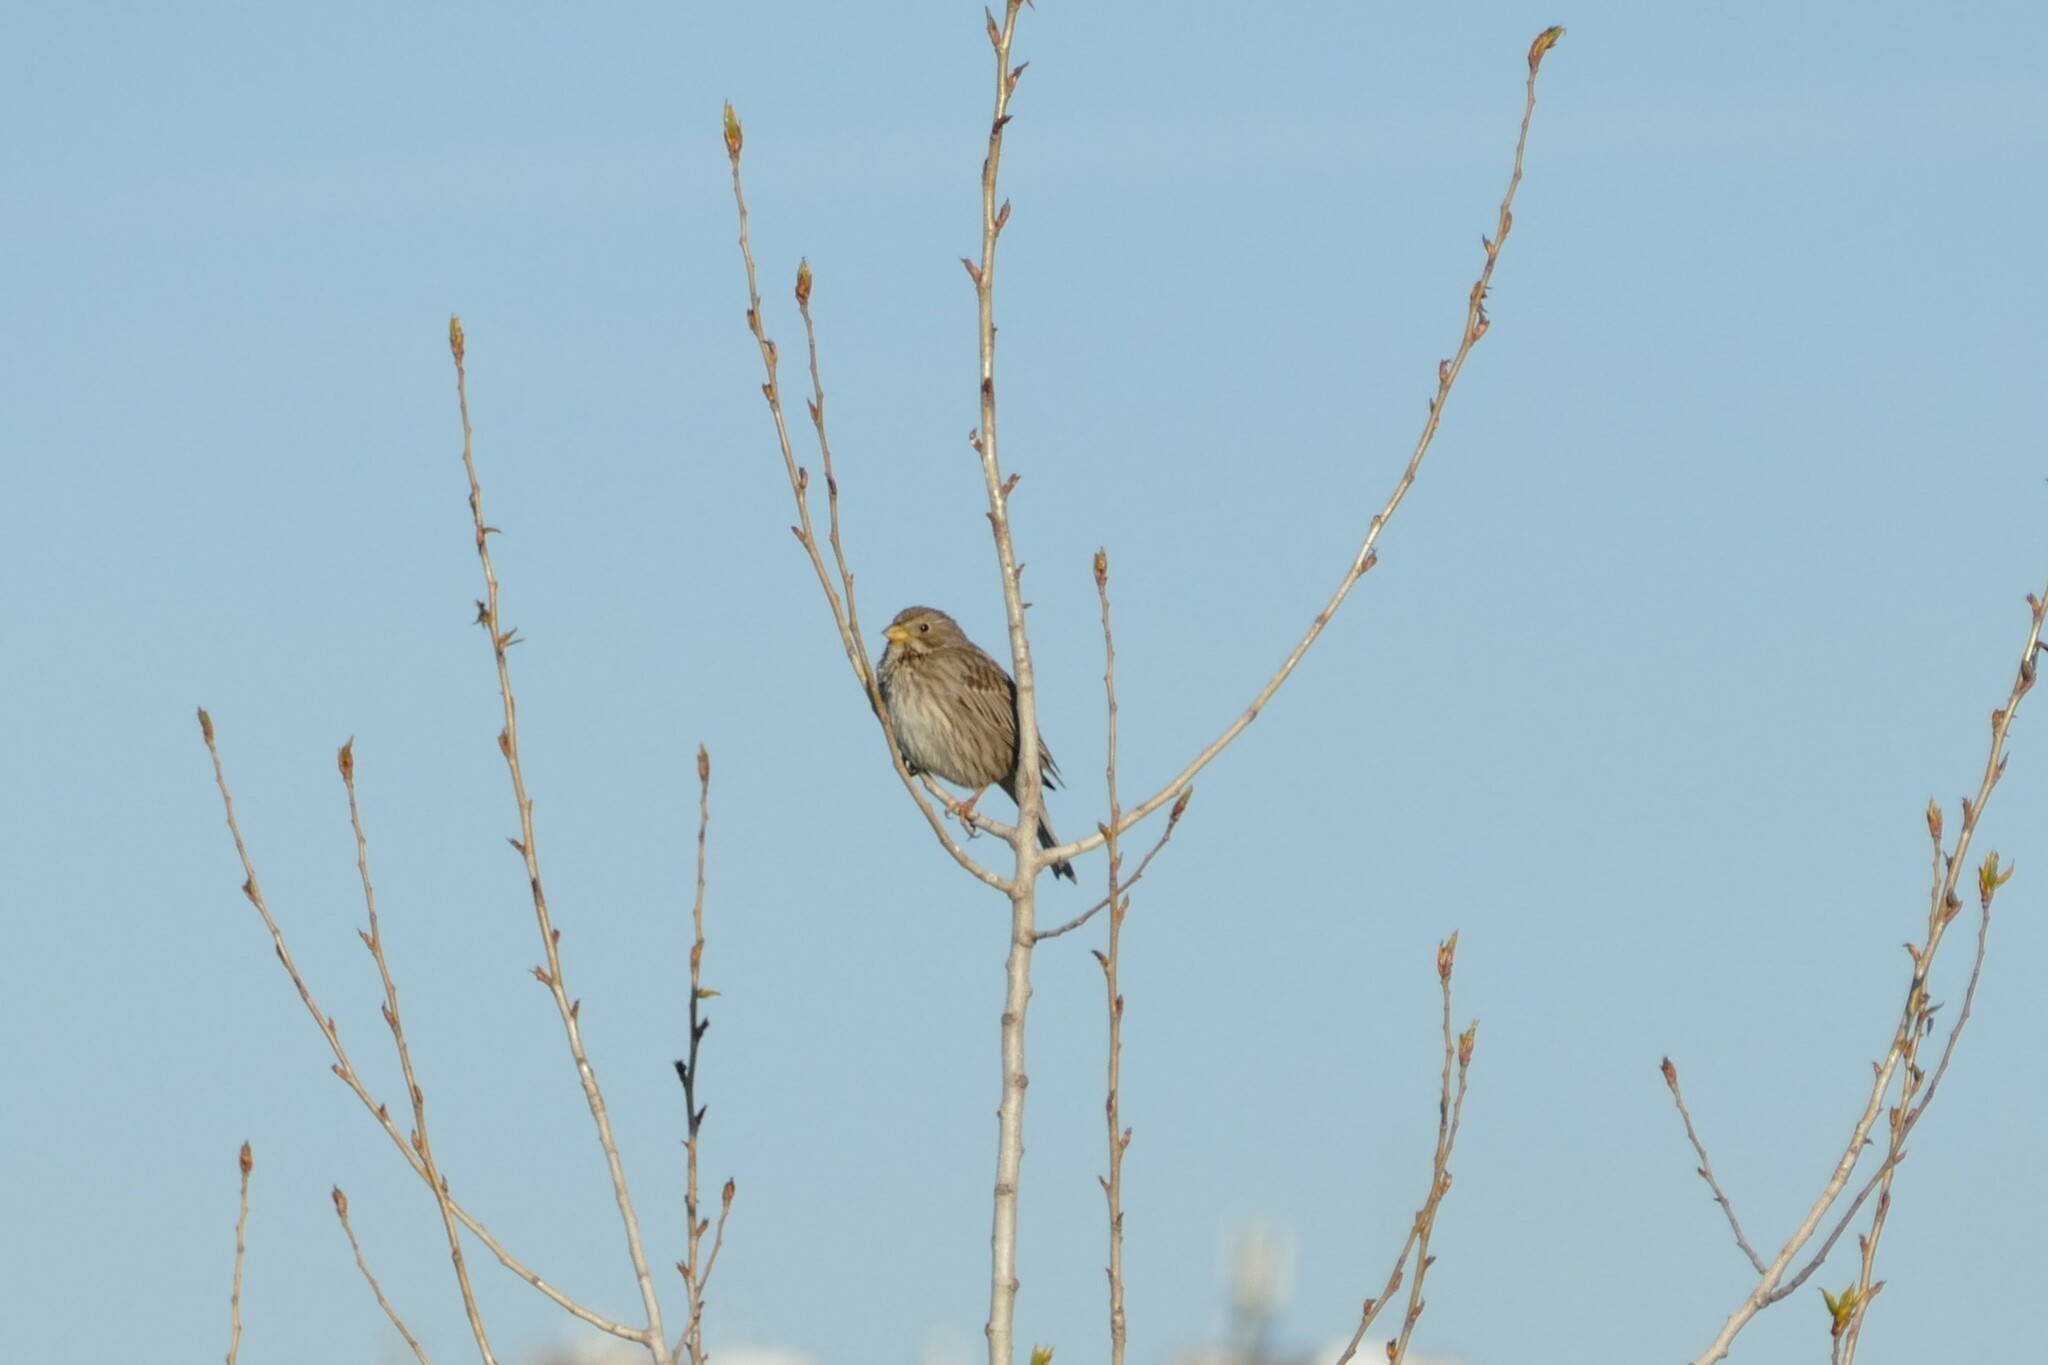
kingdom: Animalia
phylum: Chordata
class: Aves
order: Passeriformes
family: Emberizidae
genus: Emberiza
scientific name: Emberiza calandra
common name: Corn bunting
